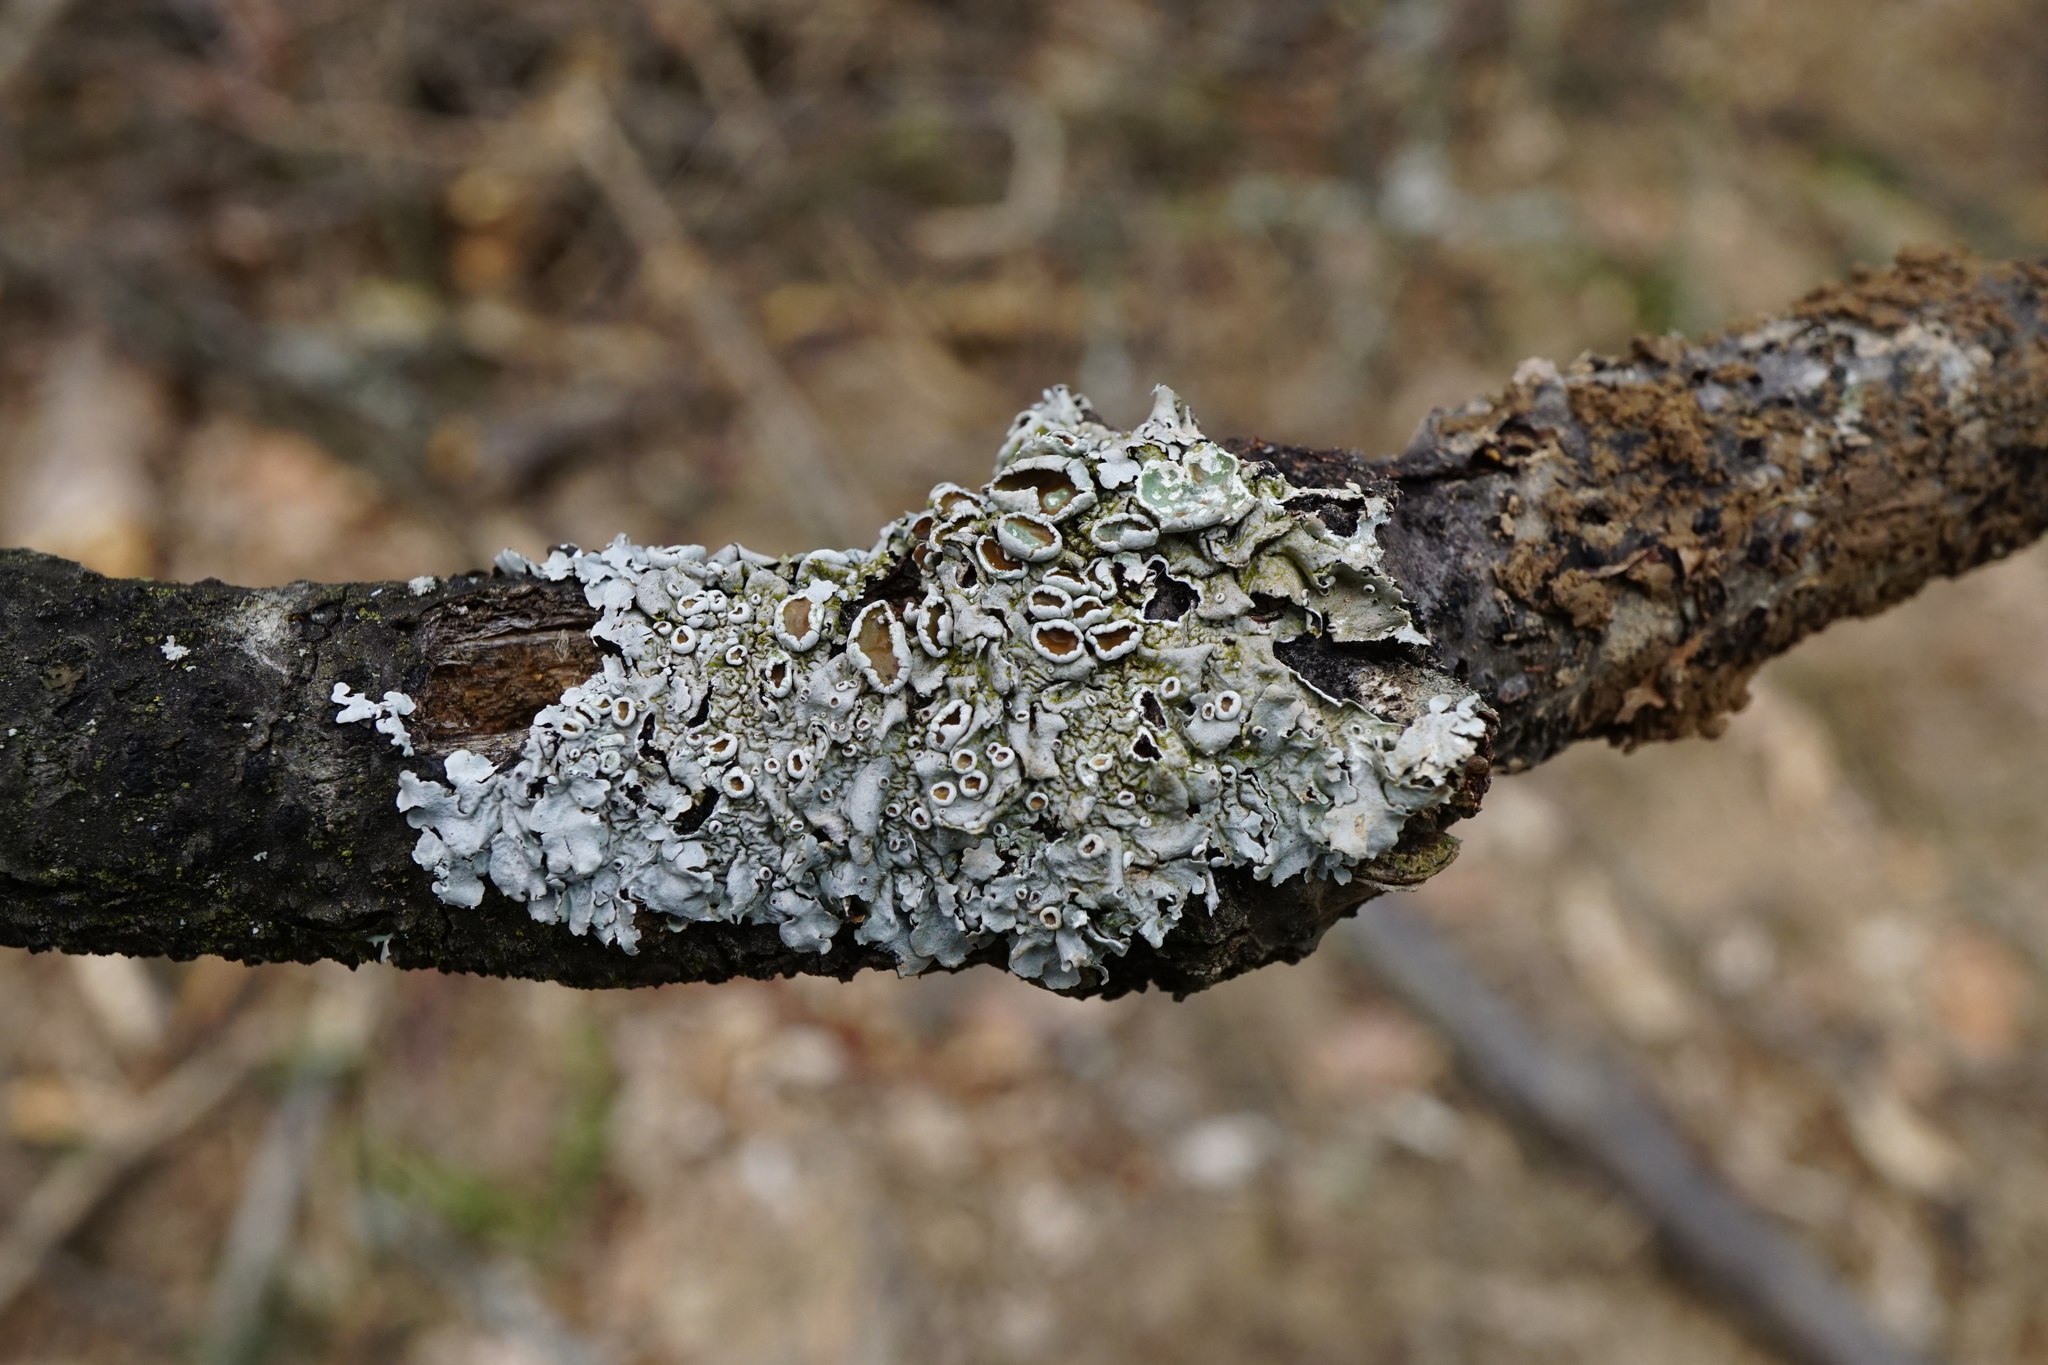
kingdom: Fungi
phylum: Ascomycota
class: Lecanoromycetes
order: Lecanorales
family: Parmeliaceae
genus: Parmelina
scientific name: Parmelina quercina
